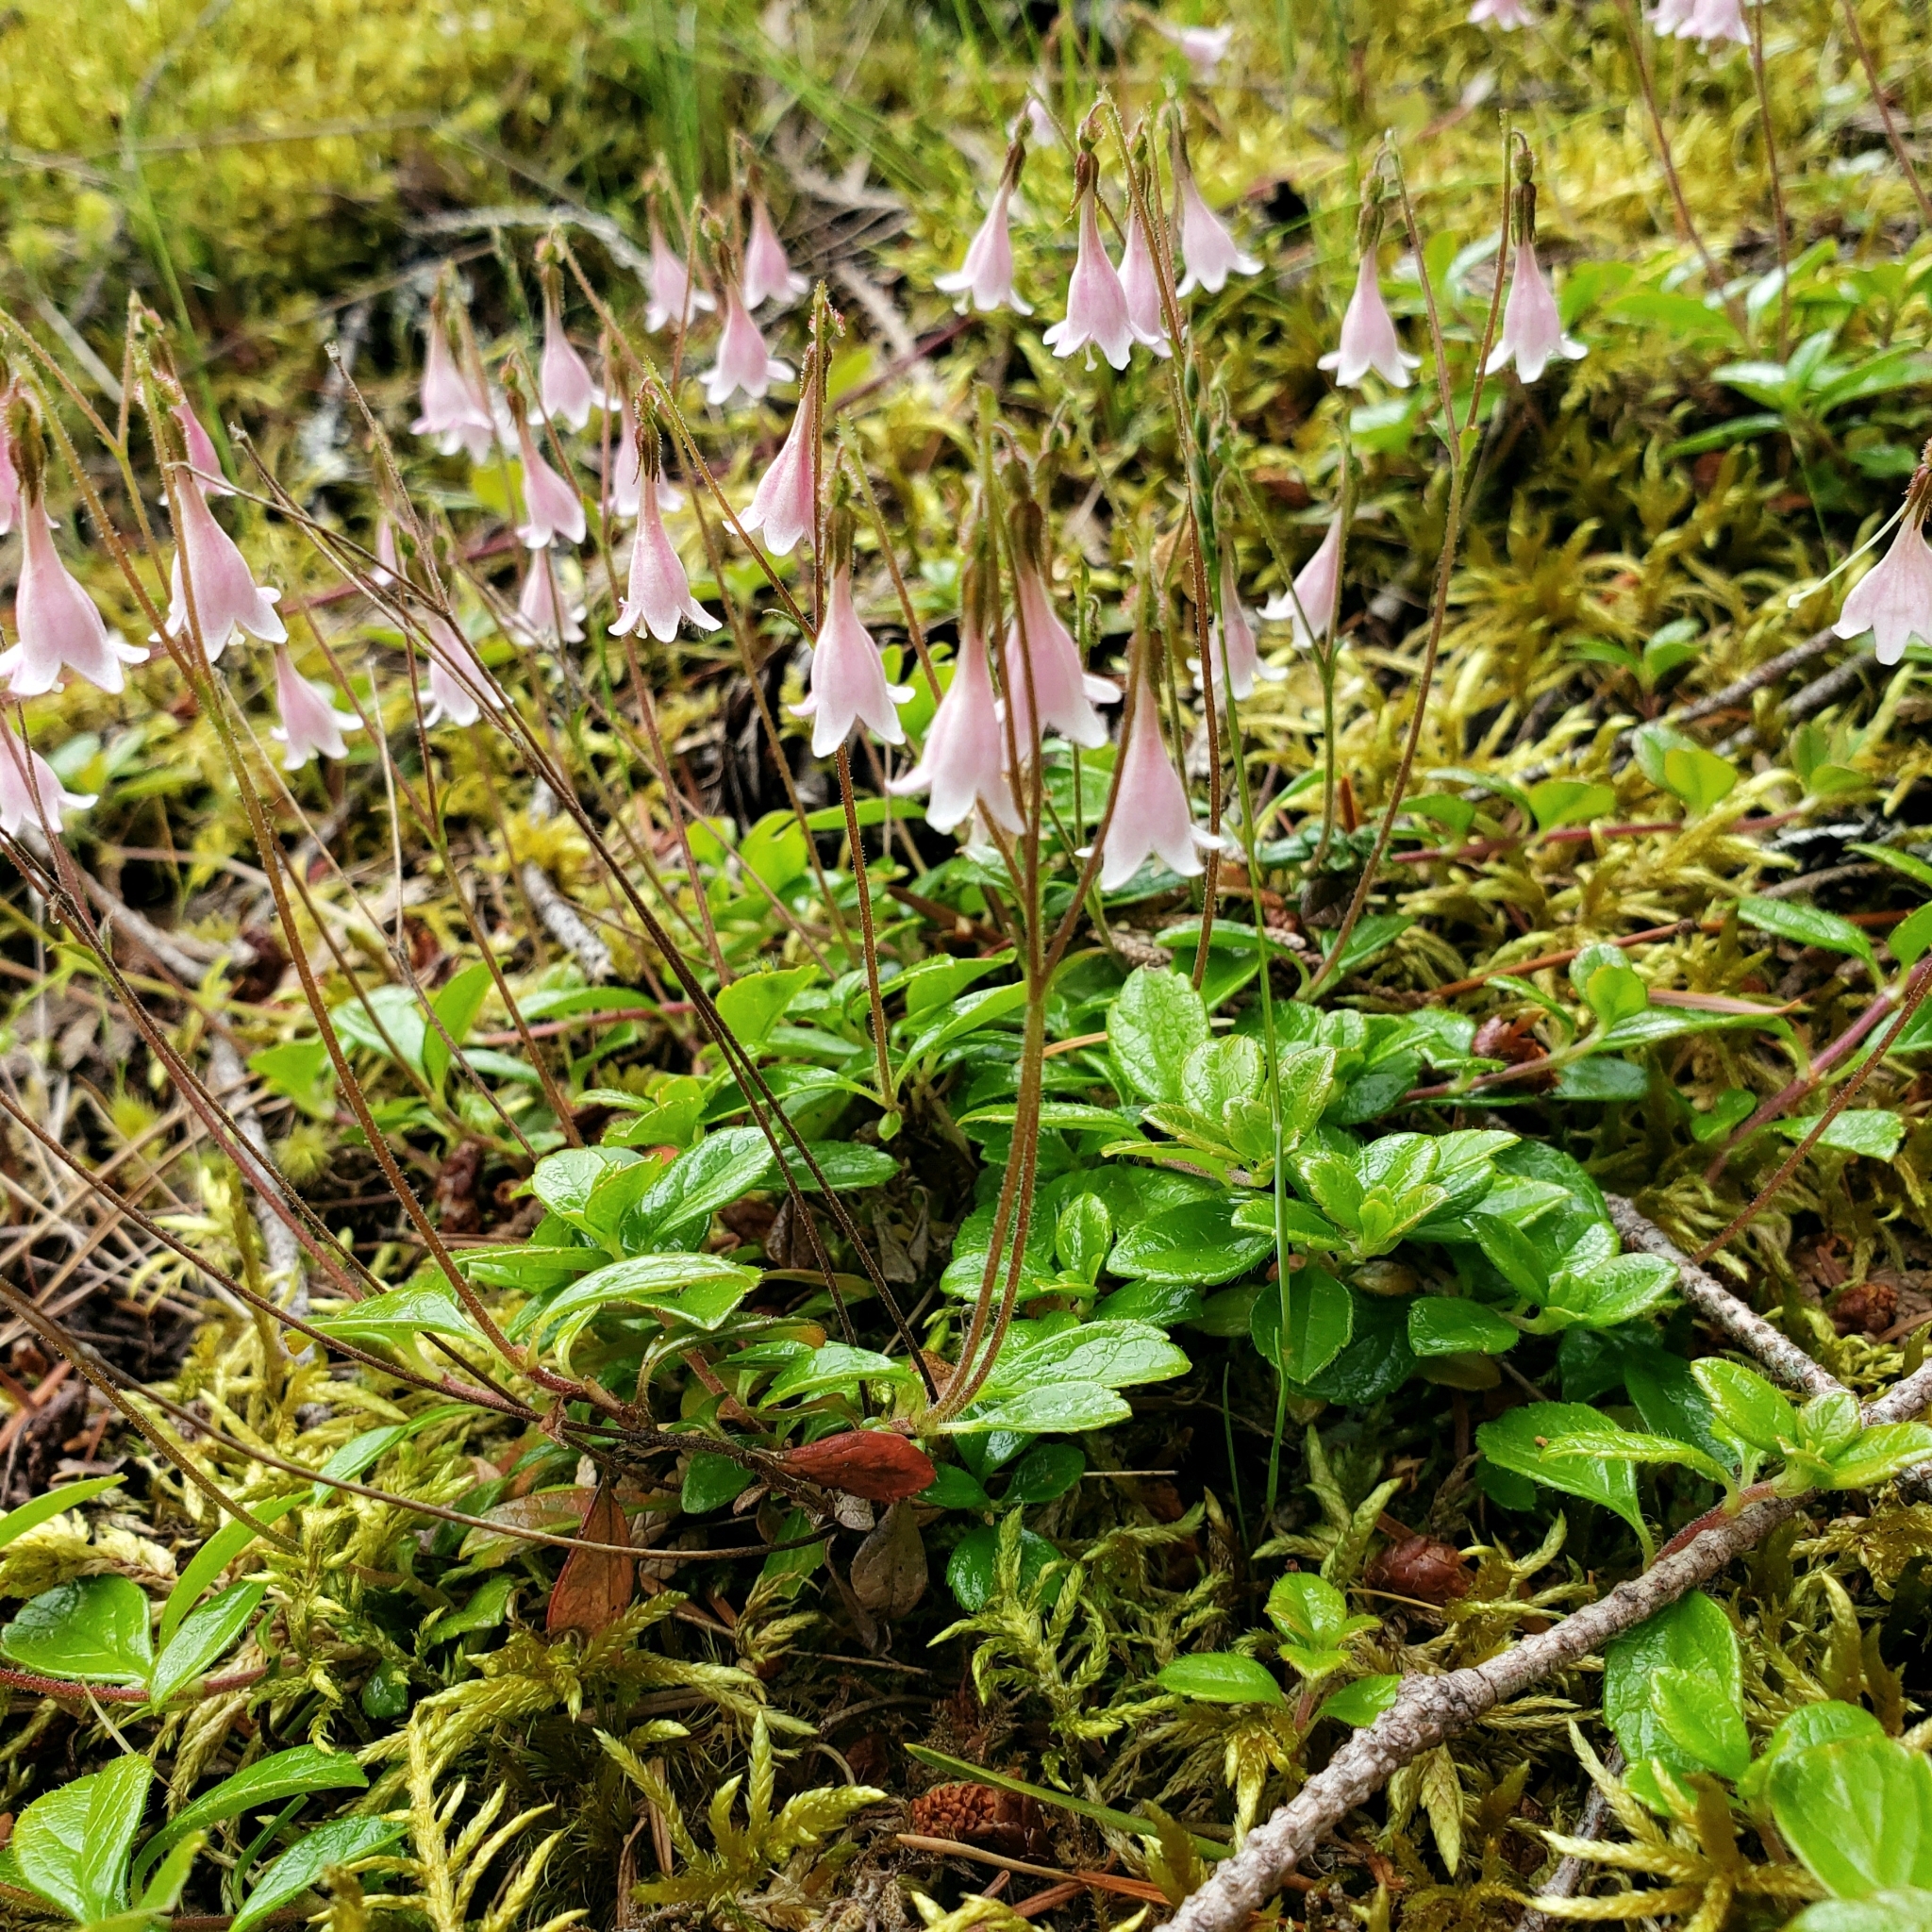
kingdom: Plantae
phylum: Tracheophyta
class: Magnoliopsida
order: Dipsacales
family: Caprifoliaceae
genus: Linnaea
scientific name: Linnaea borealis
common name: Twinflower
